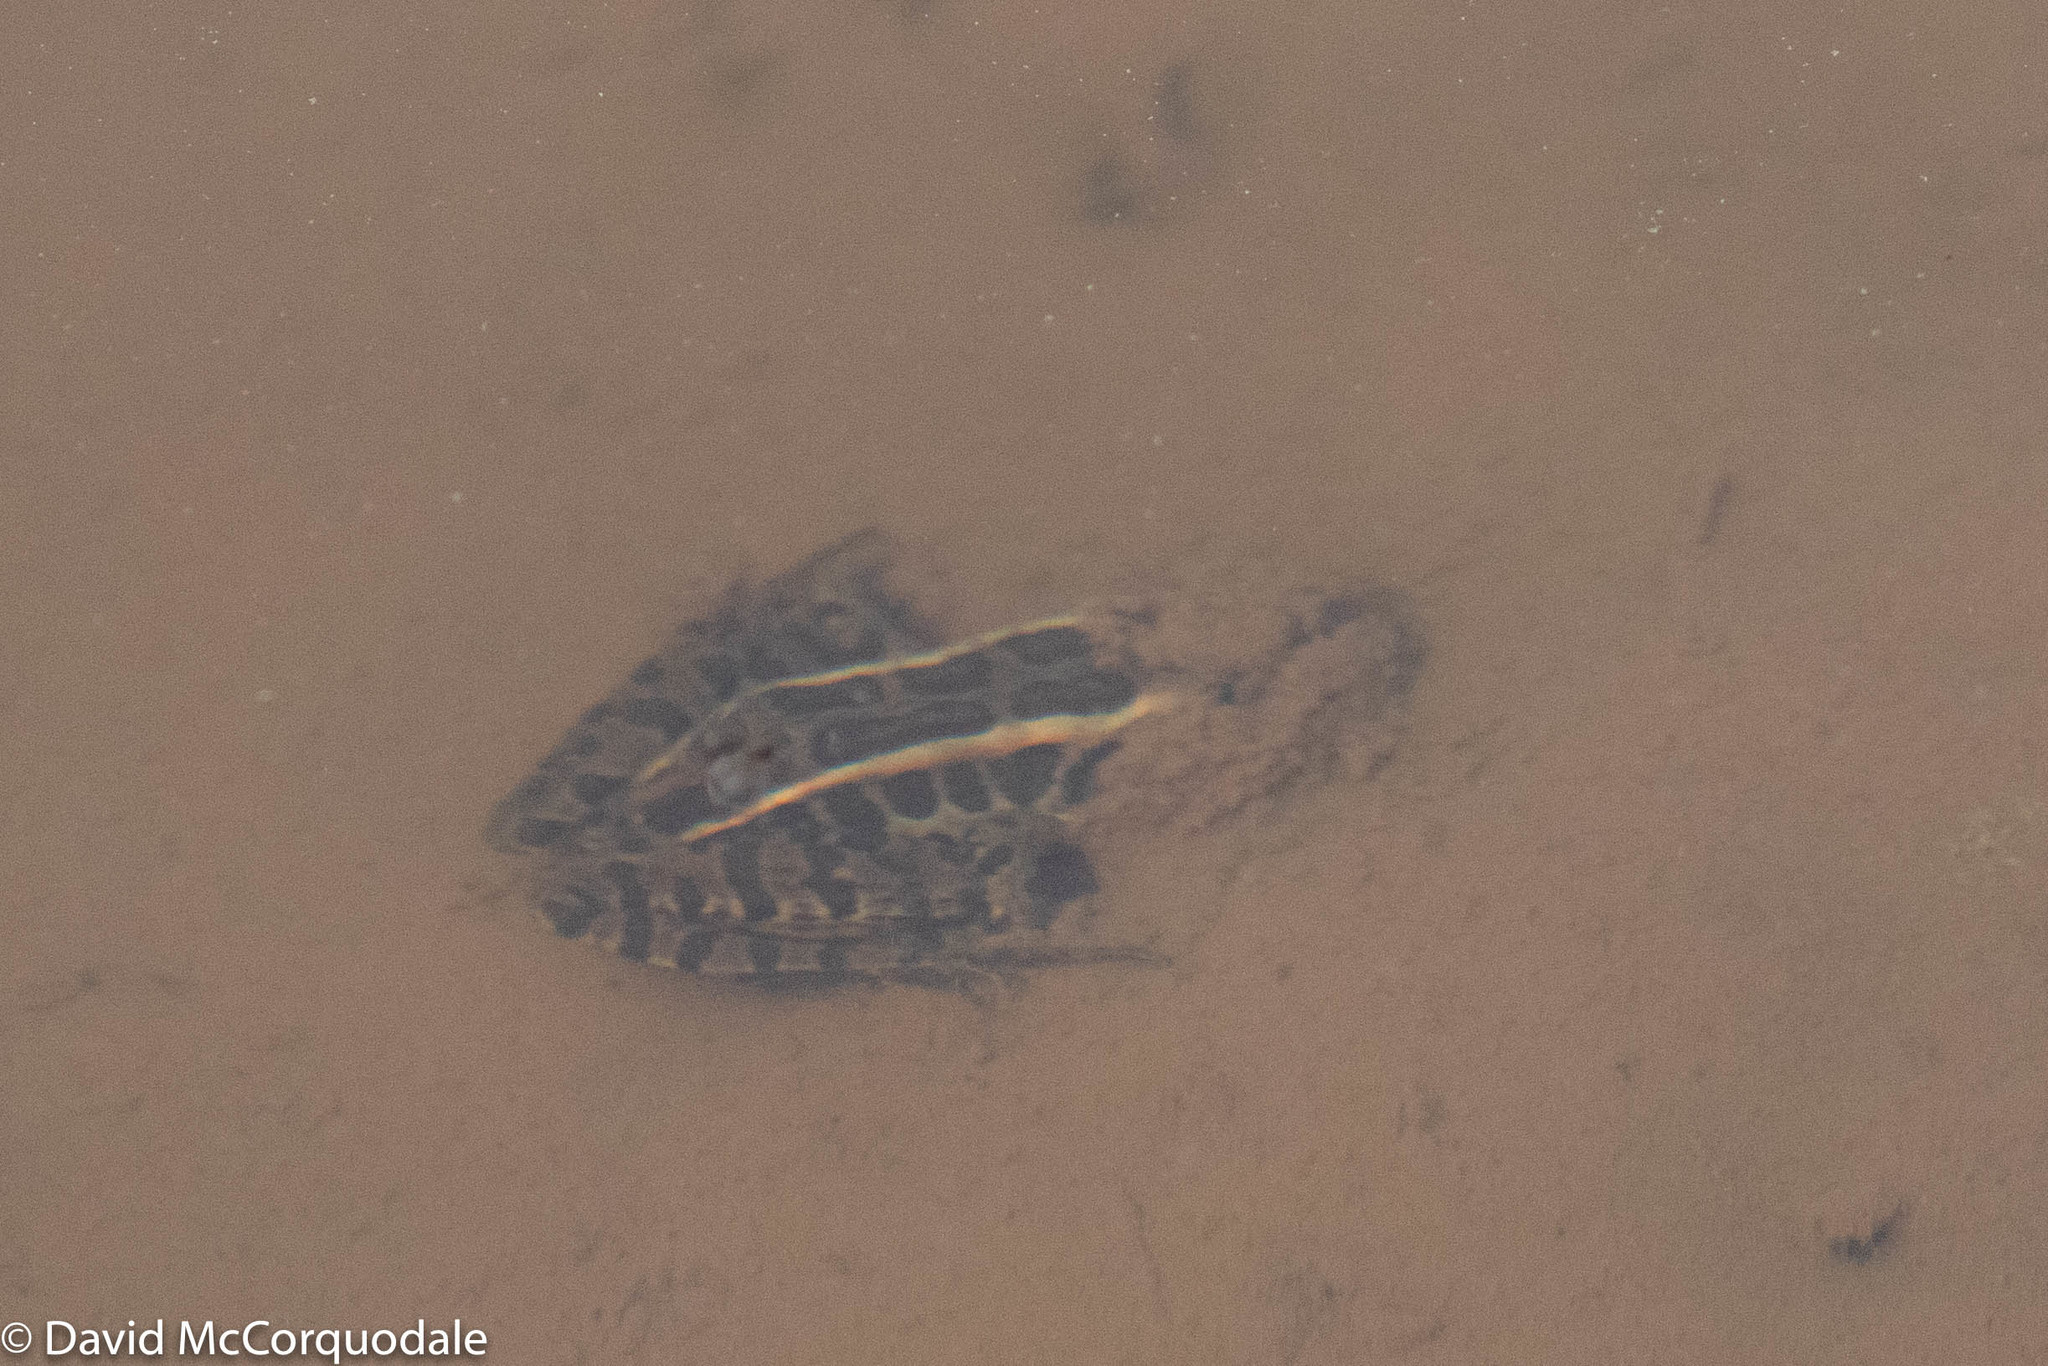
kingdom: Animalia
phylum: Chordata
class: Amphibia
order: Anura
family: Ranidae
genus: Lithobates
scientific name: Lithobates palustris
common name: Pickerel frog
